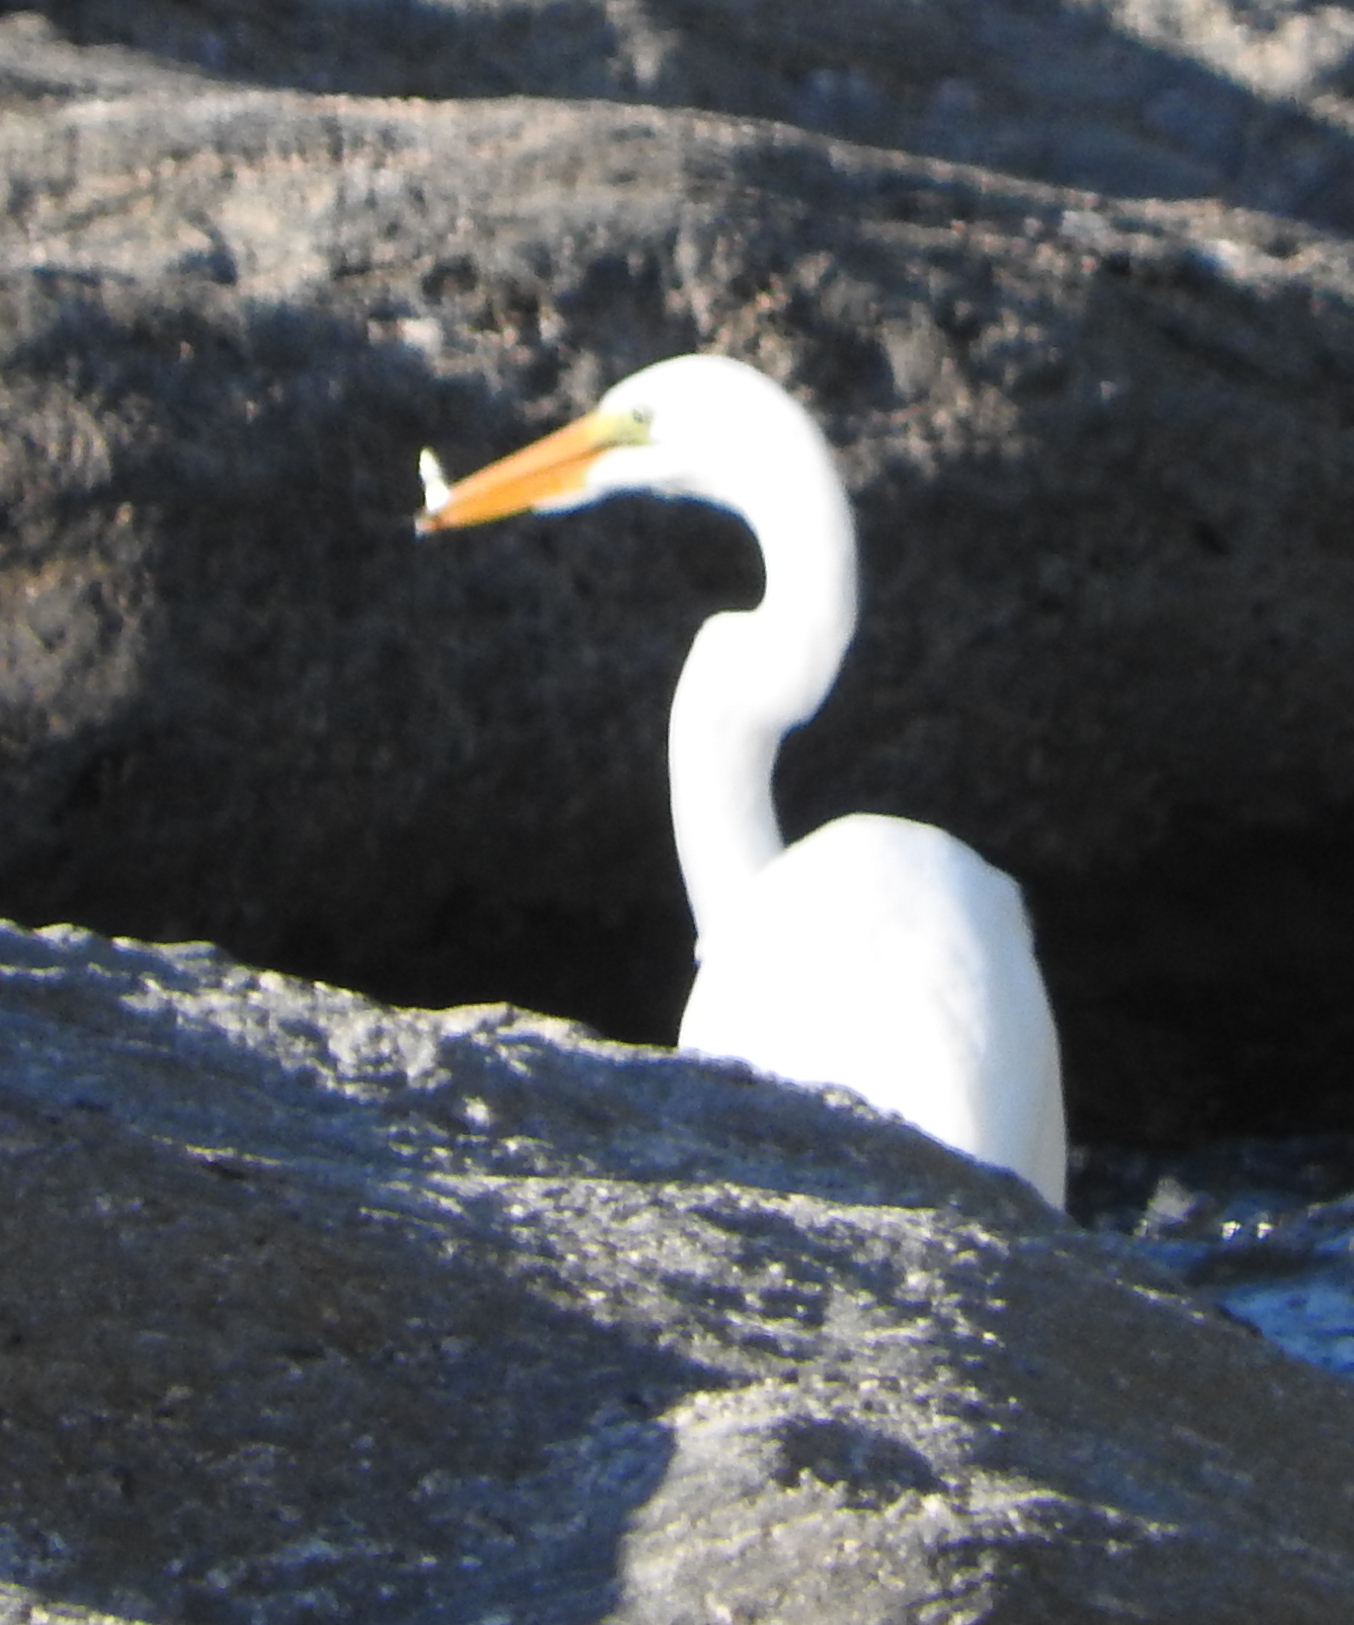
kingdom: Animalia
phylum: Chordata
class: Aves
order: Pelecaniformes
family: Ardeidae
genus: Ardea
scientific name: Ardea alba
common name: Great egret
